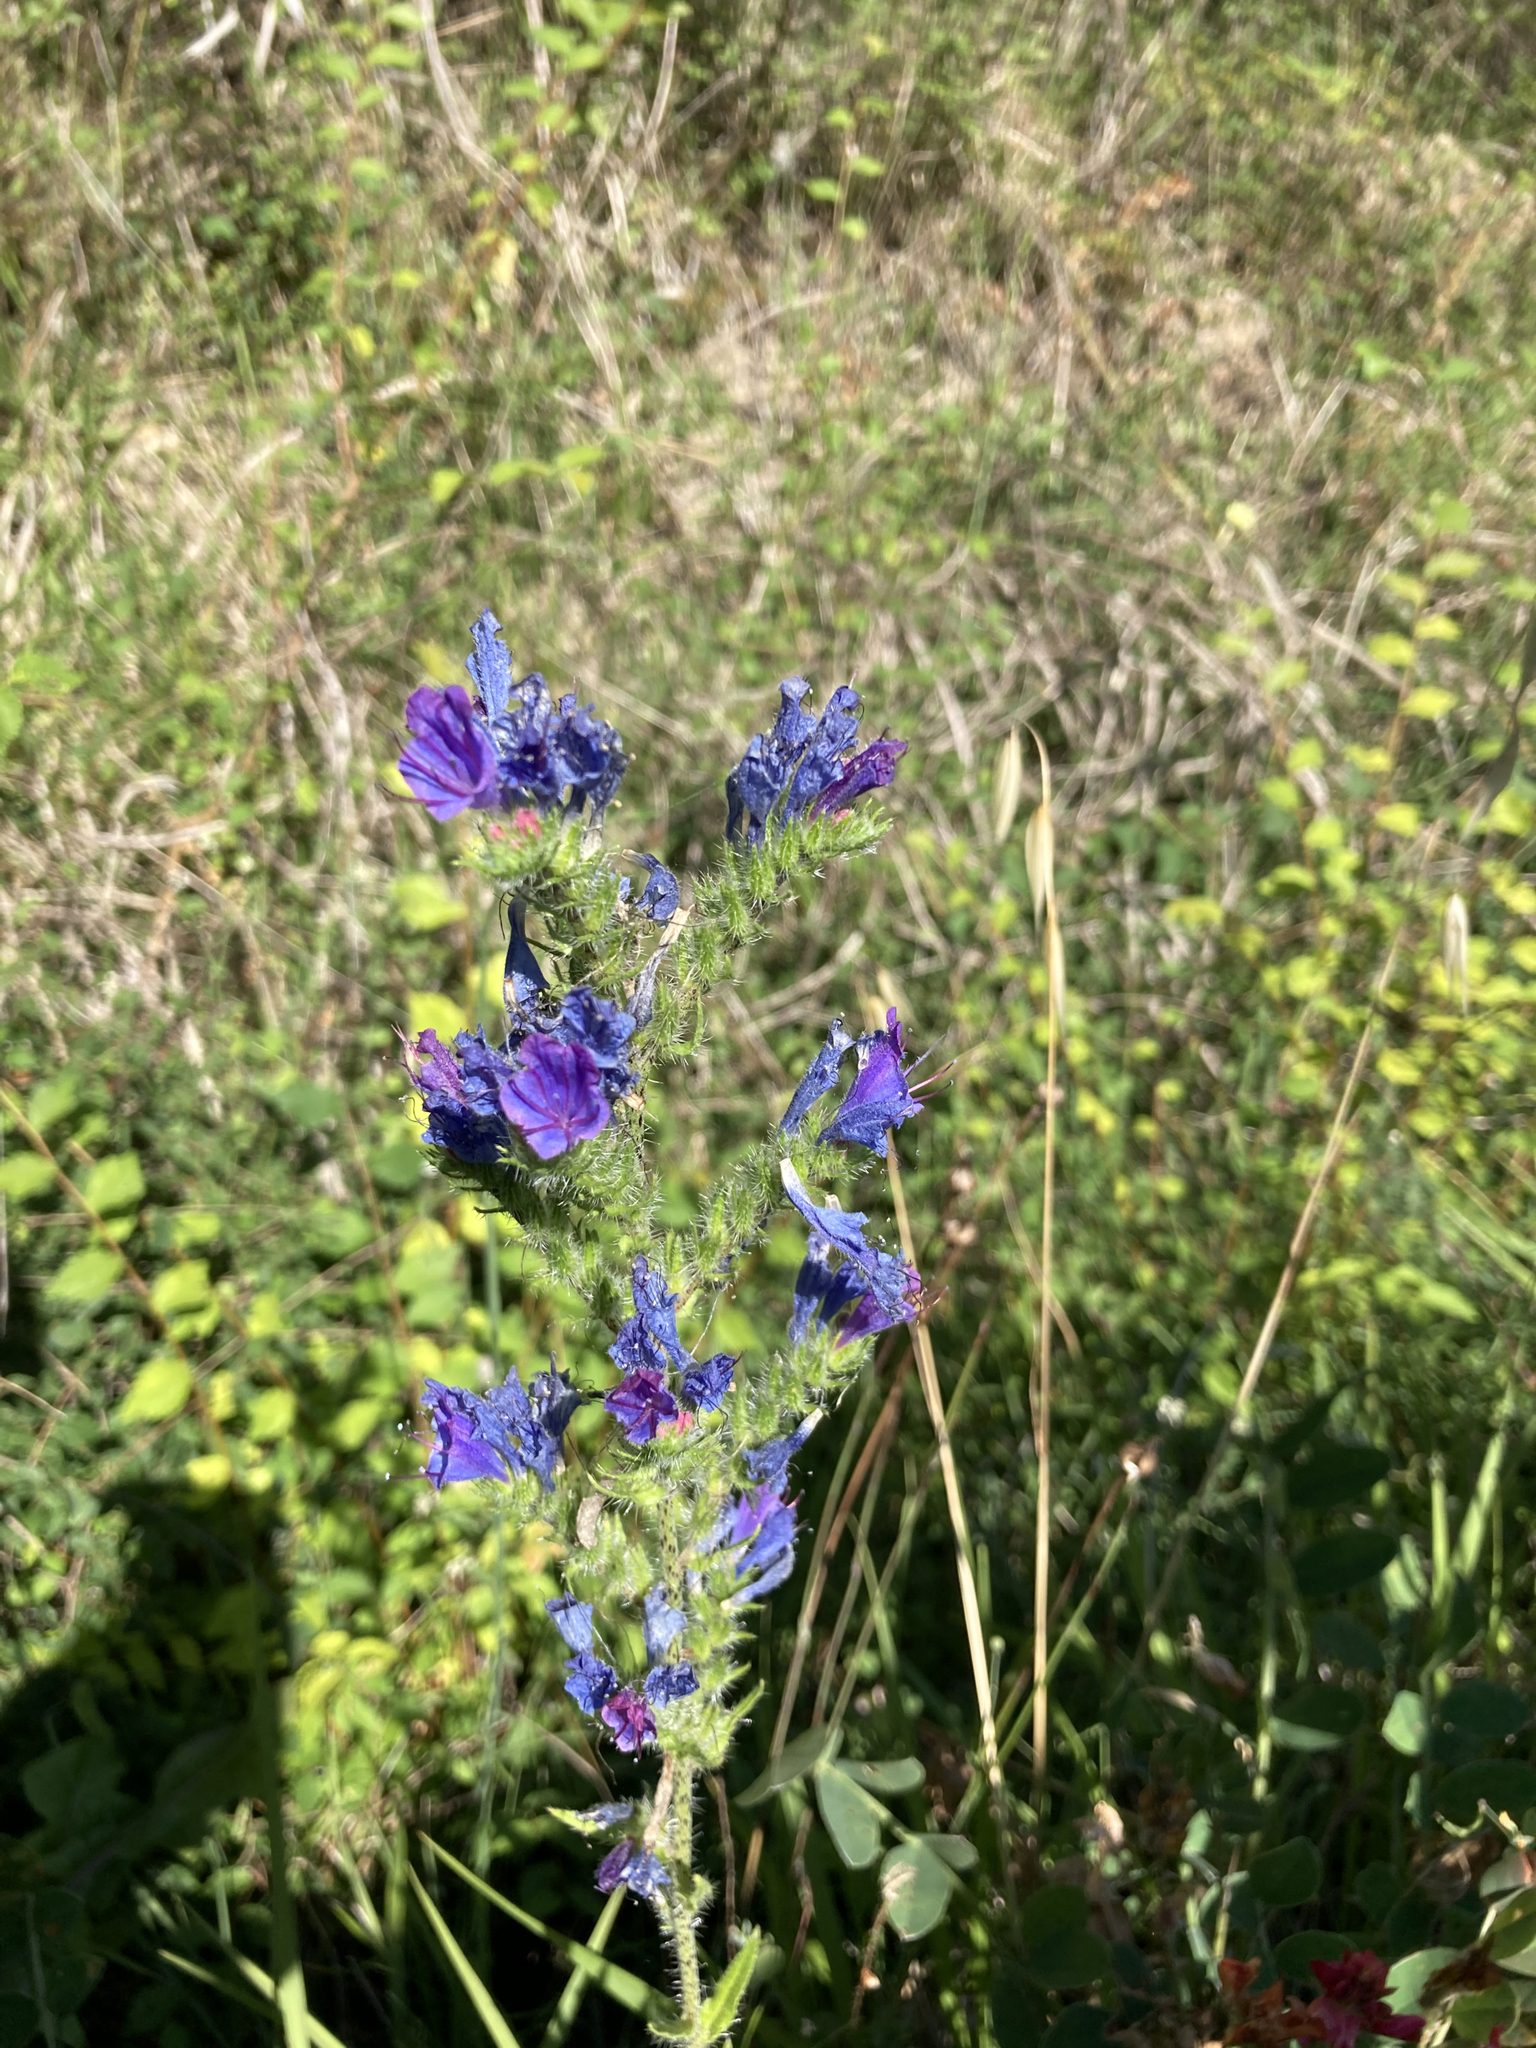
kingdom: Plantae
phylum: Tracheophyta
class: Magnoliopsida
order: Boraginales
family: Boraginaceae
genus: Echium
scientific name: Echium vulgare
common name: Common viper's bugloss
